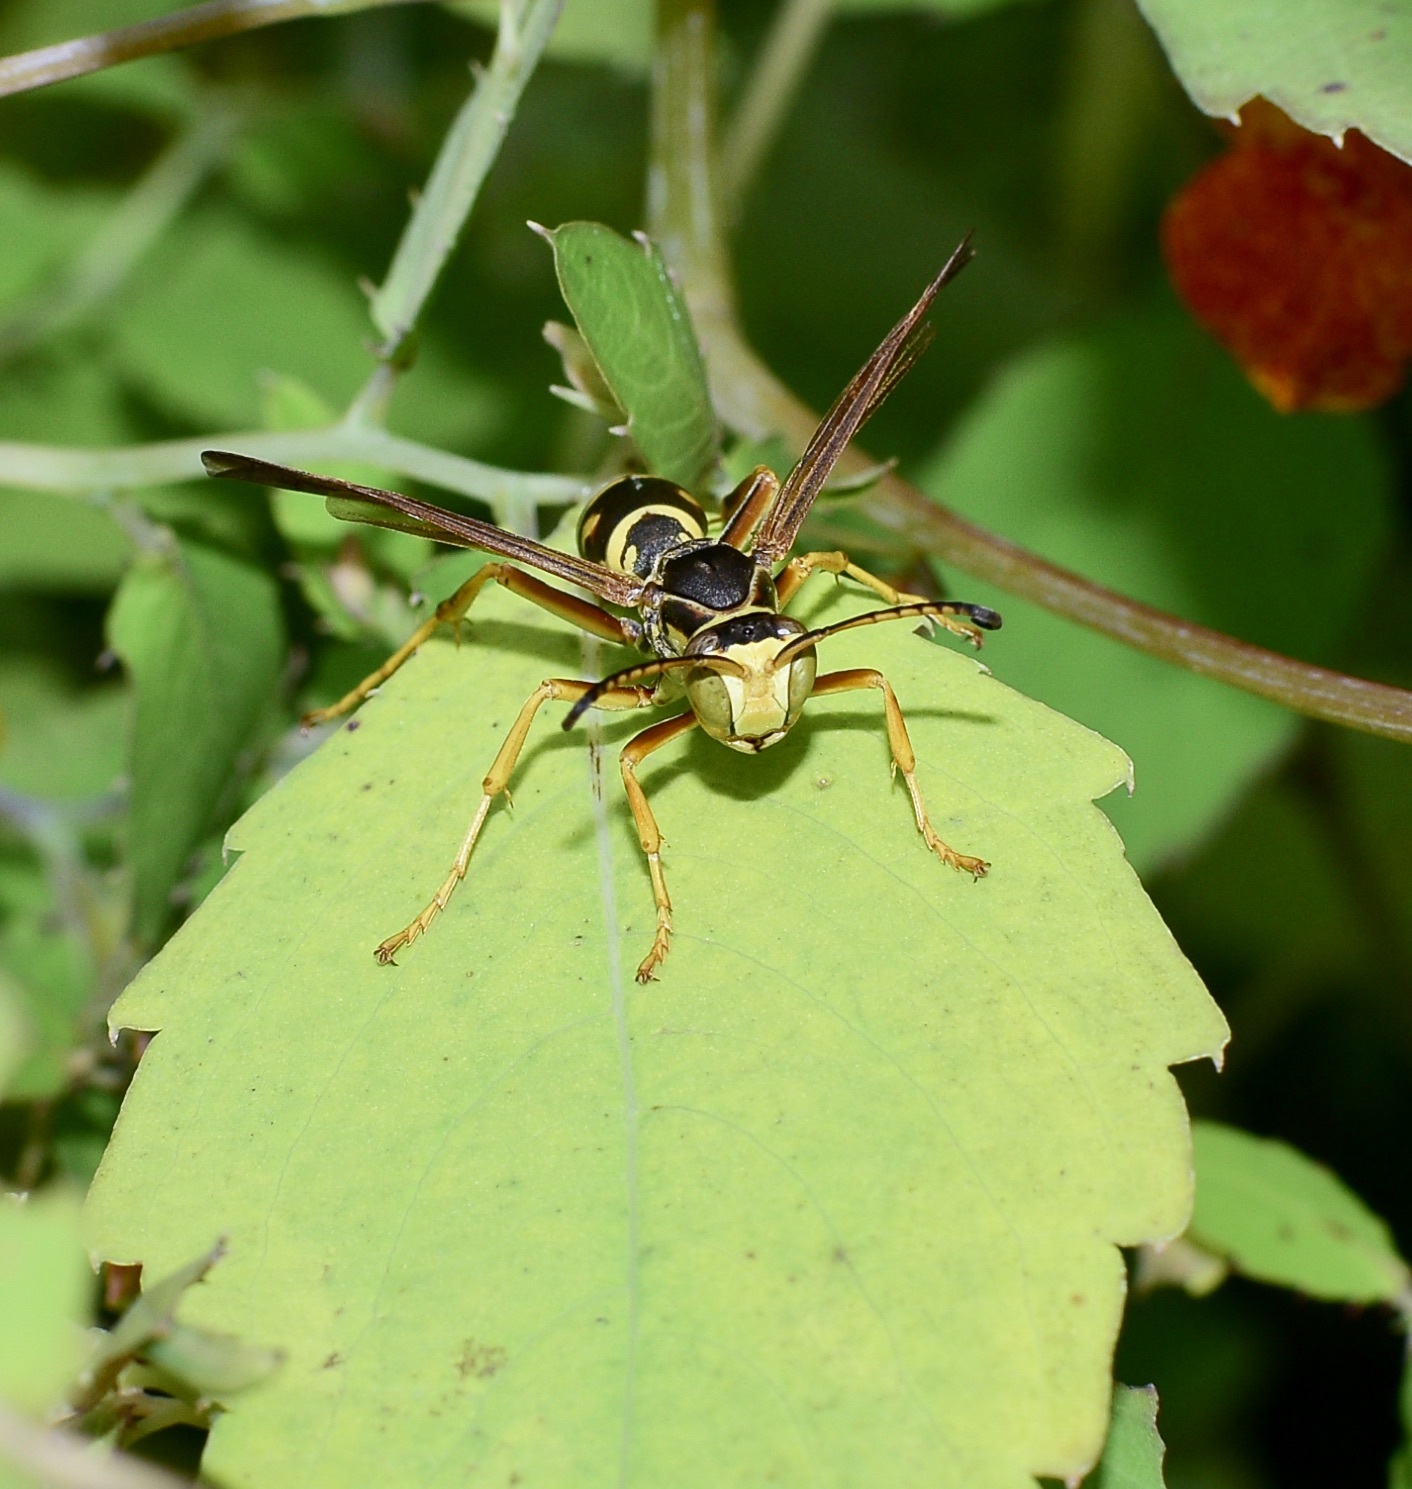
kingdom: Animalia
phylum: Arthropoda
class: Insecta
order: Hymenoptera
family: Eumenidae
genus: Polistes
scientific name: Polistes fuscatus
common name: Dark paper wasp
